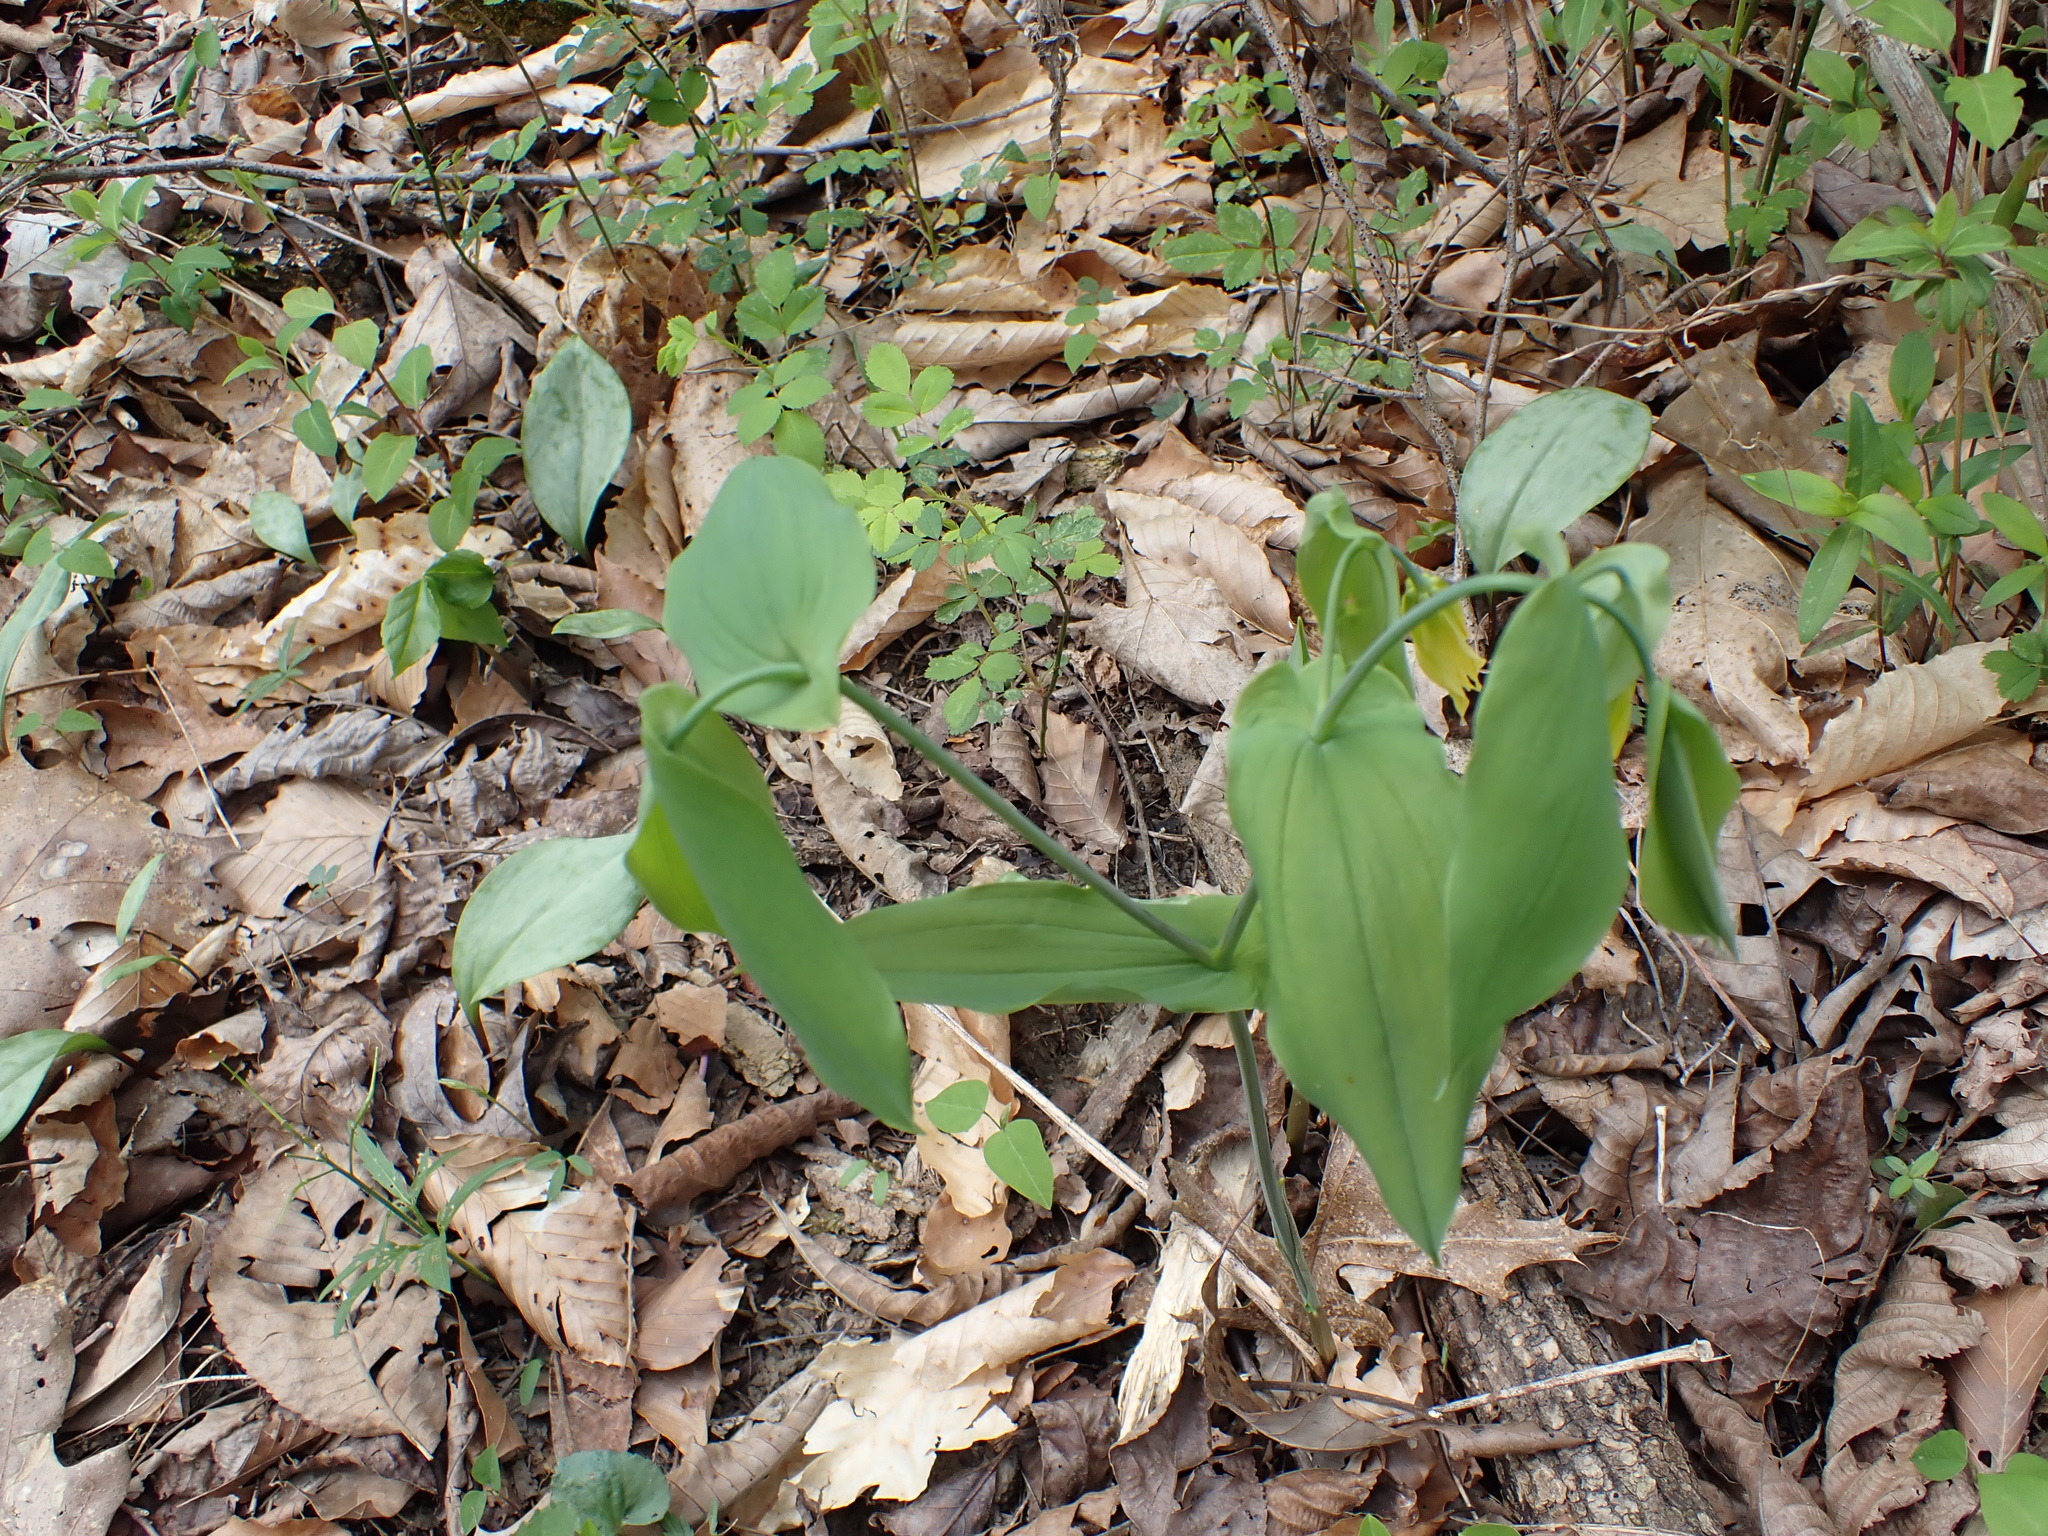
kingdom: Plantae
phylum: Tracheophyta
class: Liliopsida
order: Liliales
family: Colchicaceae
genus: Uvularia
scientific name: Uvularia grandiflora
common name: Bellwort
